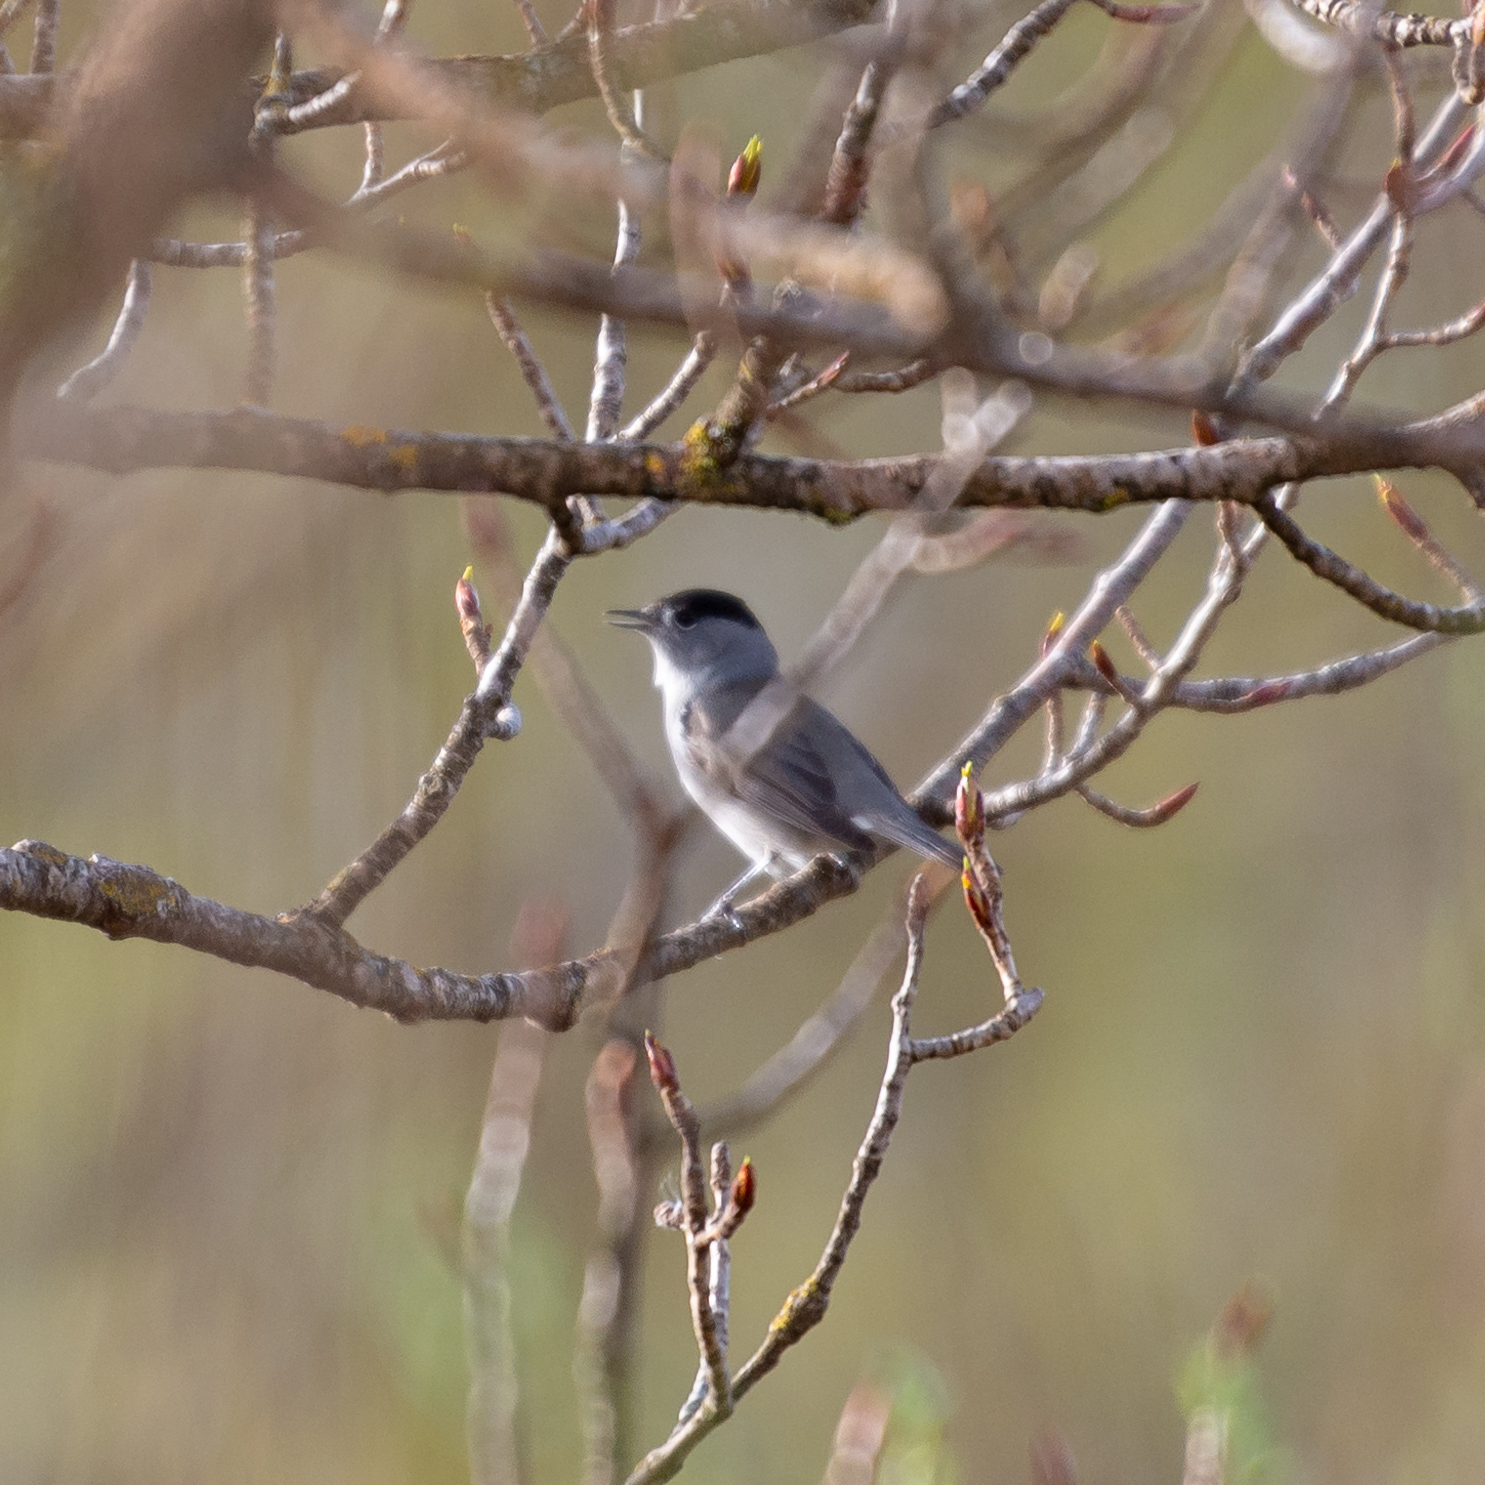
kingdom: Animalia
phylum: Chordata
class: Aves
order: Passeriformes
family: Sylviidae
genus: Sylvia
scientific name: Sylvia atricapilla
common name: Eurasian blackcap
